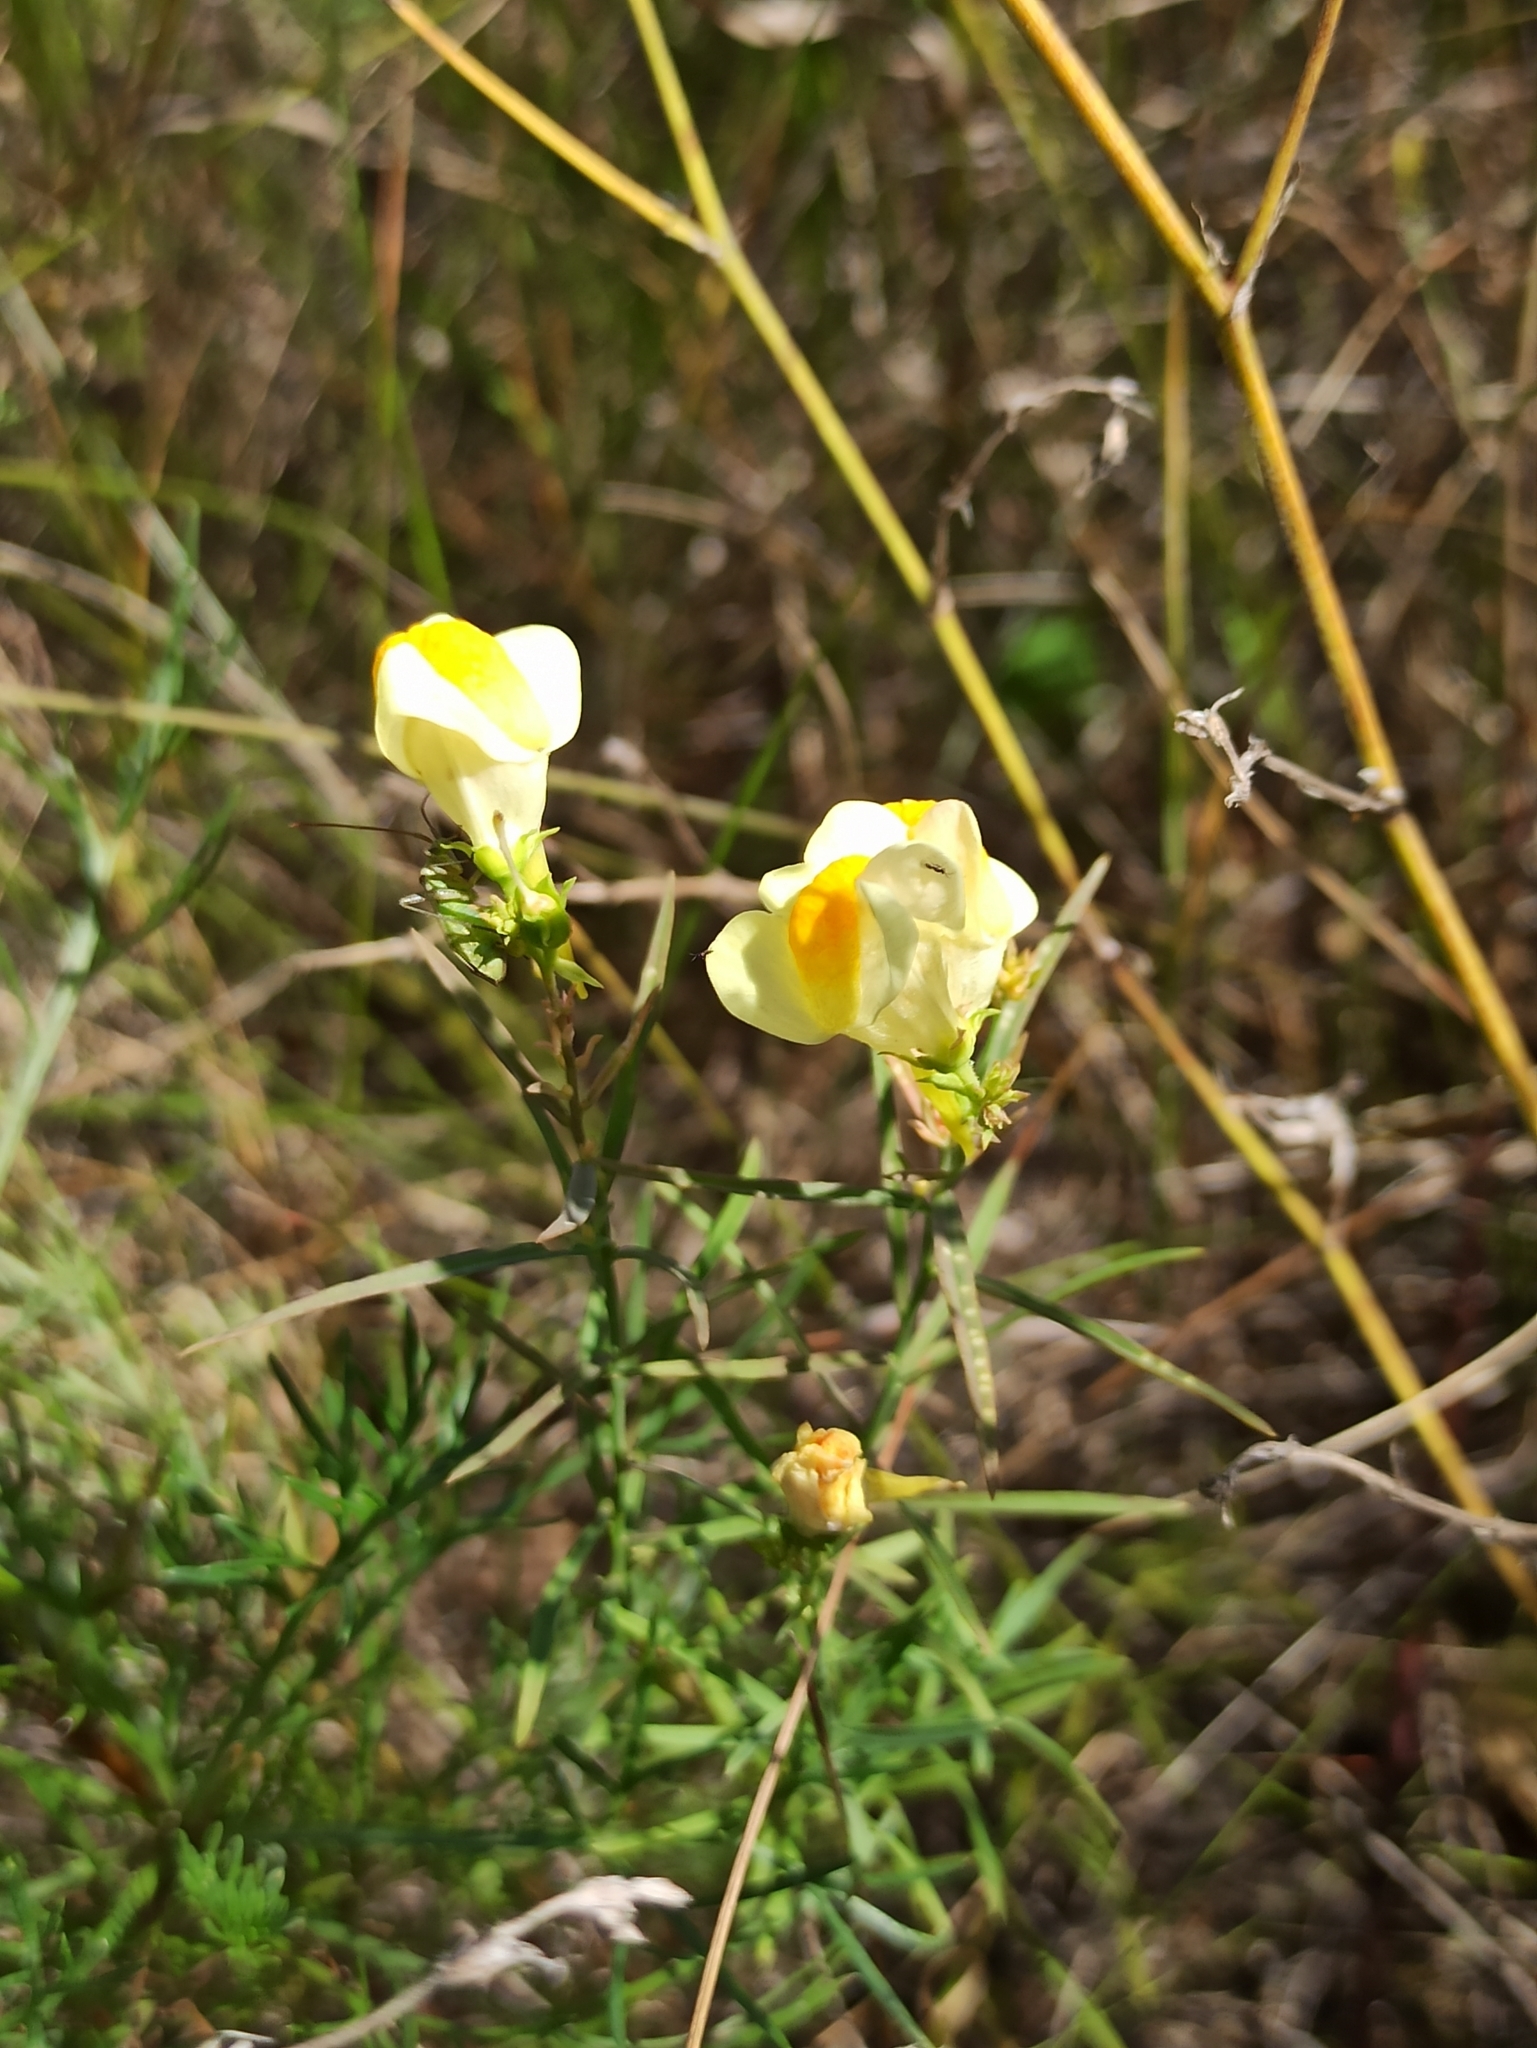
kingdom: Plantae
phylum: Tracheophyta
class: Magnoliopsida
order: Lamiales
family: Plantaginaceae
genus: Linaria
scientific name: Linaria vulgaris
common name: Butter and eggs
